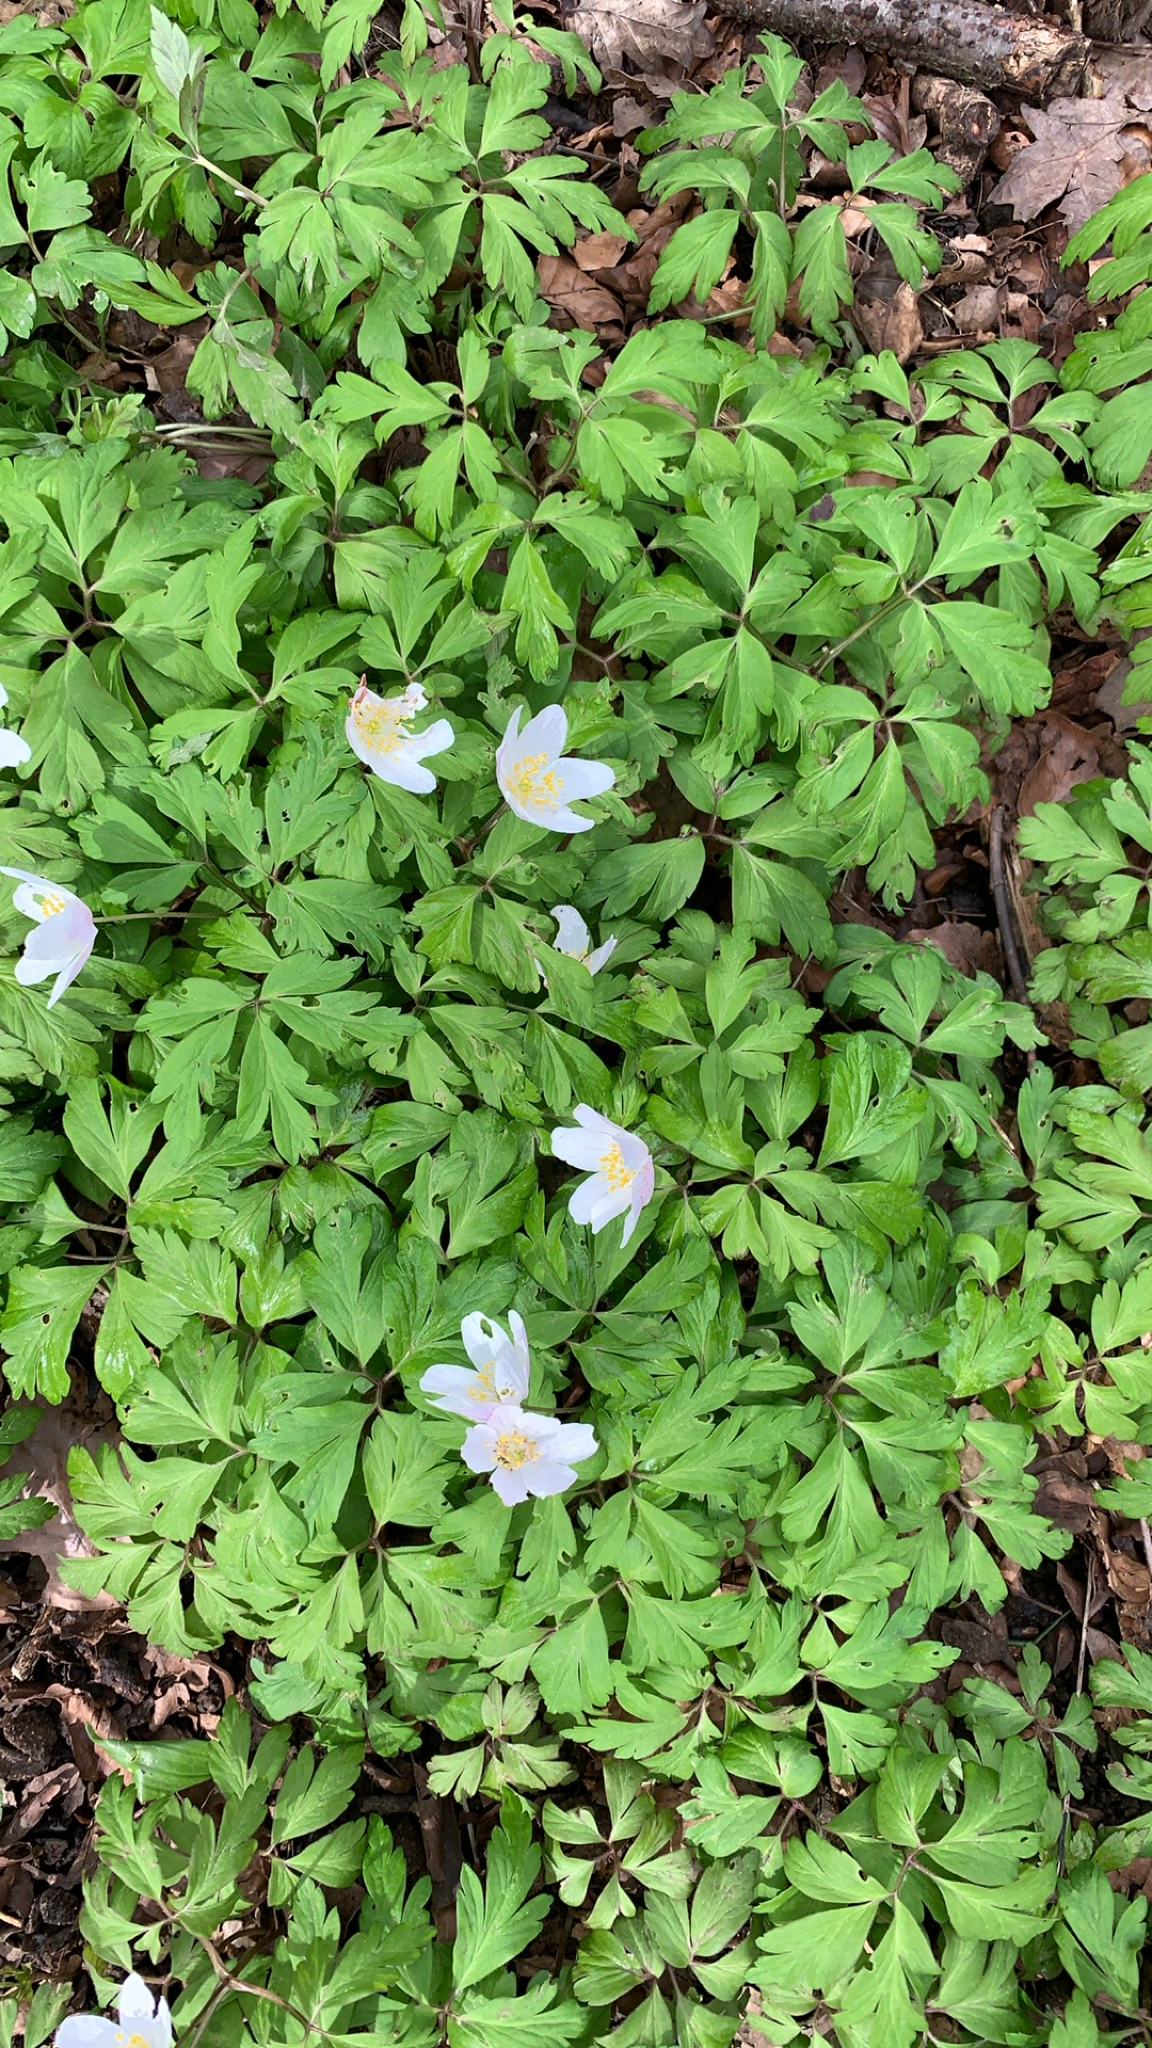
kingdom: Plantae
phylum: Tracheophyta
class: Magnoliopsida
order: Ranunculales
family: Ranunculaceae
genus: Anemone
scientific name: Anemone nemorosa
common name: Wood anemone
